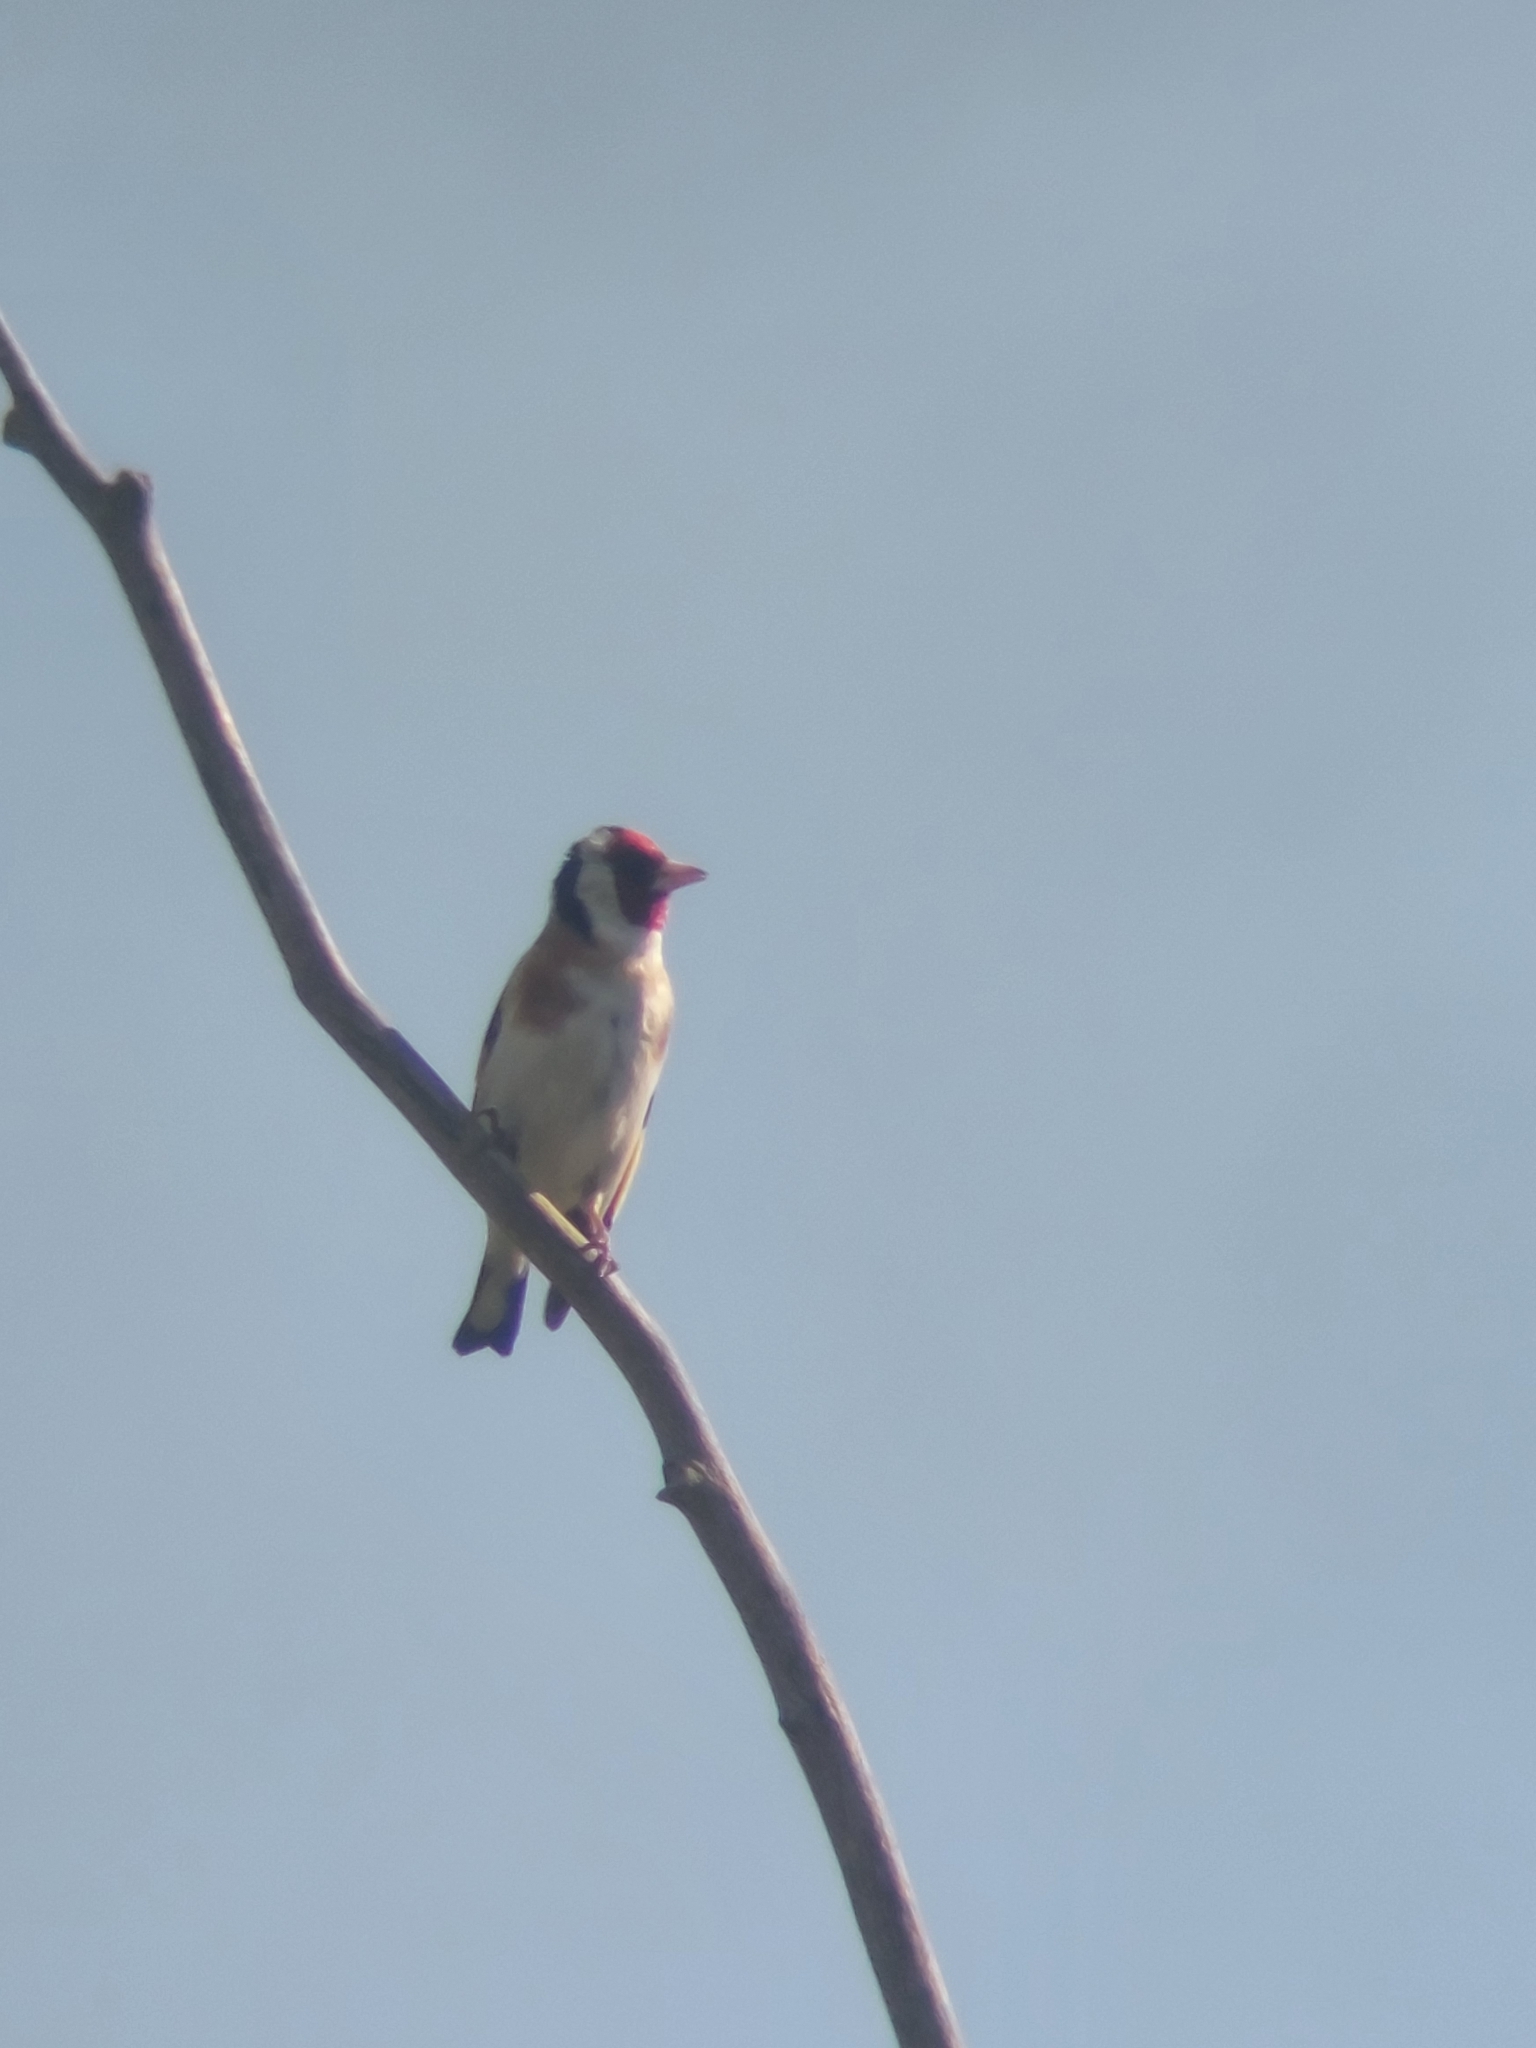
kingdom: Animalia
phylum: Chordata
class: Aves
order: Passeriformes
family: Fringillidae
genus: Carduelis
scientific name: Carduelis carduelis
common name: European goldfinch
